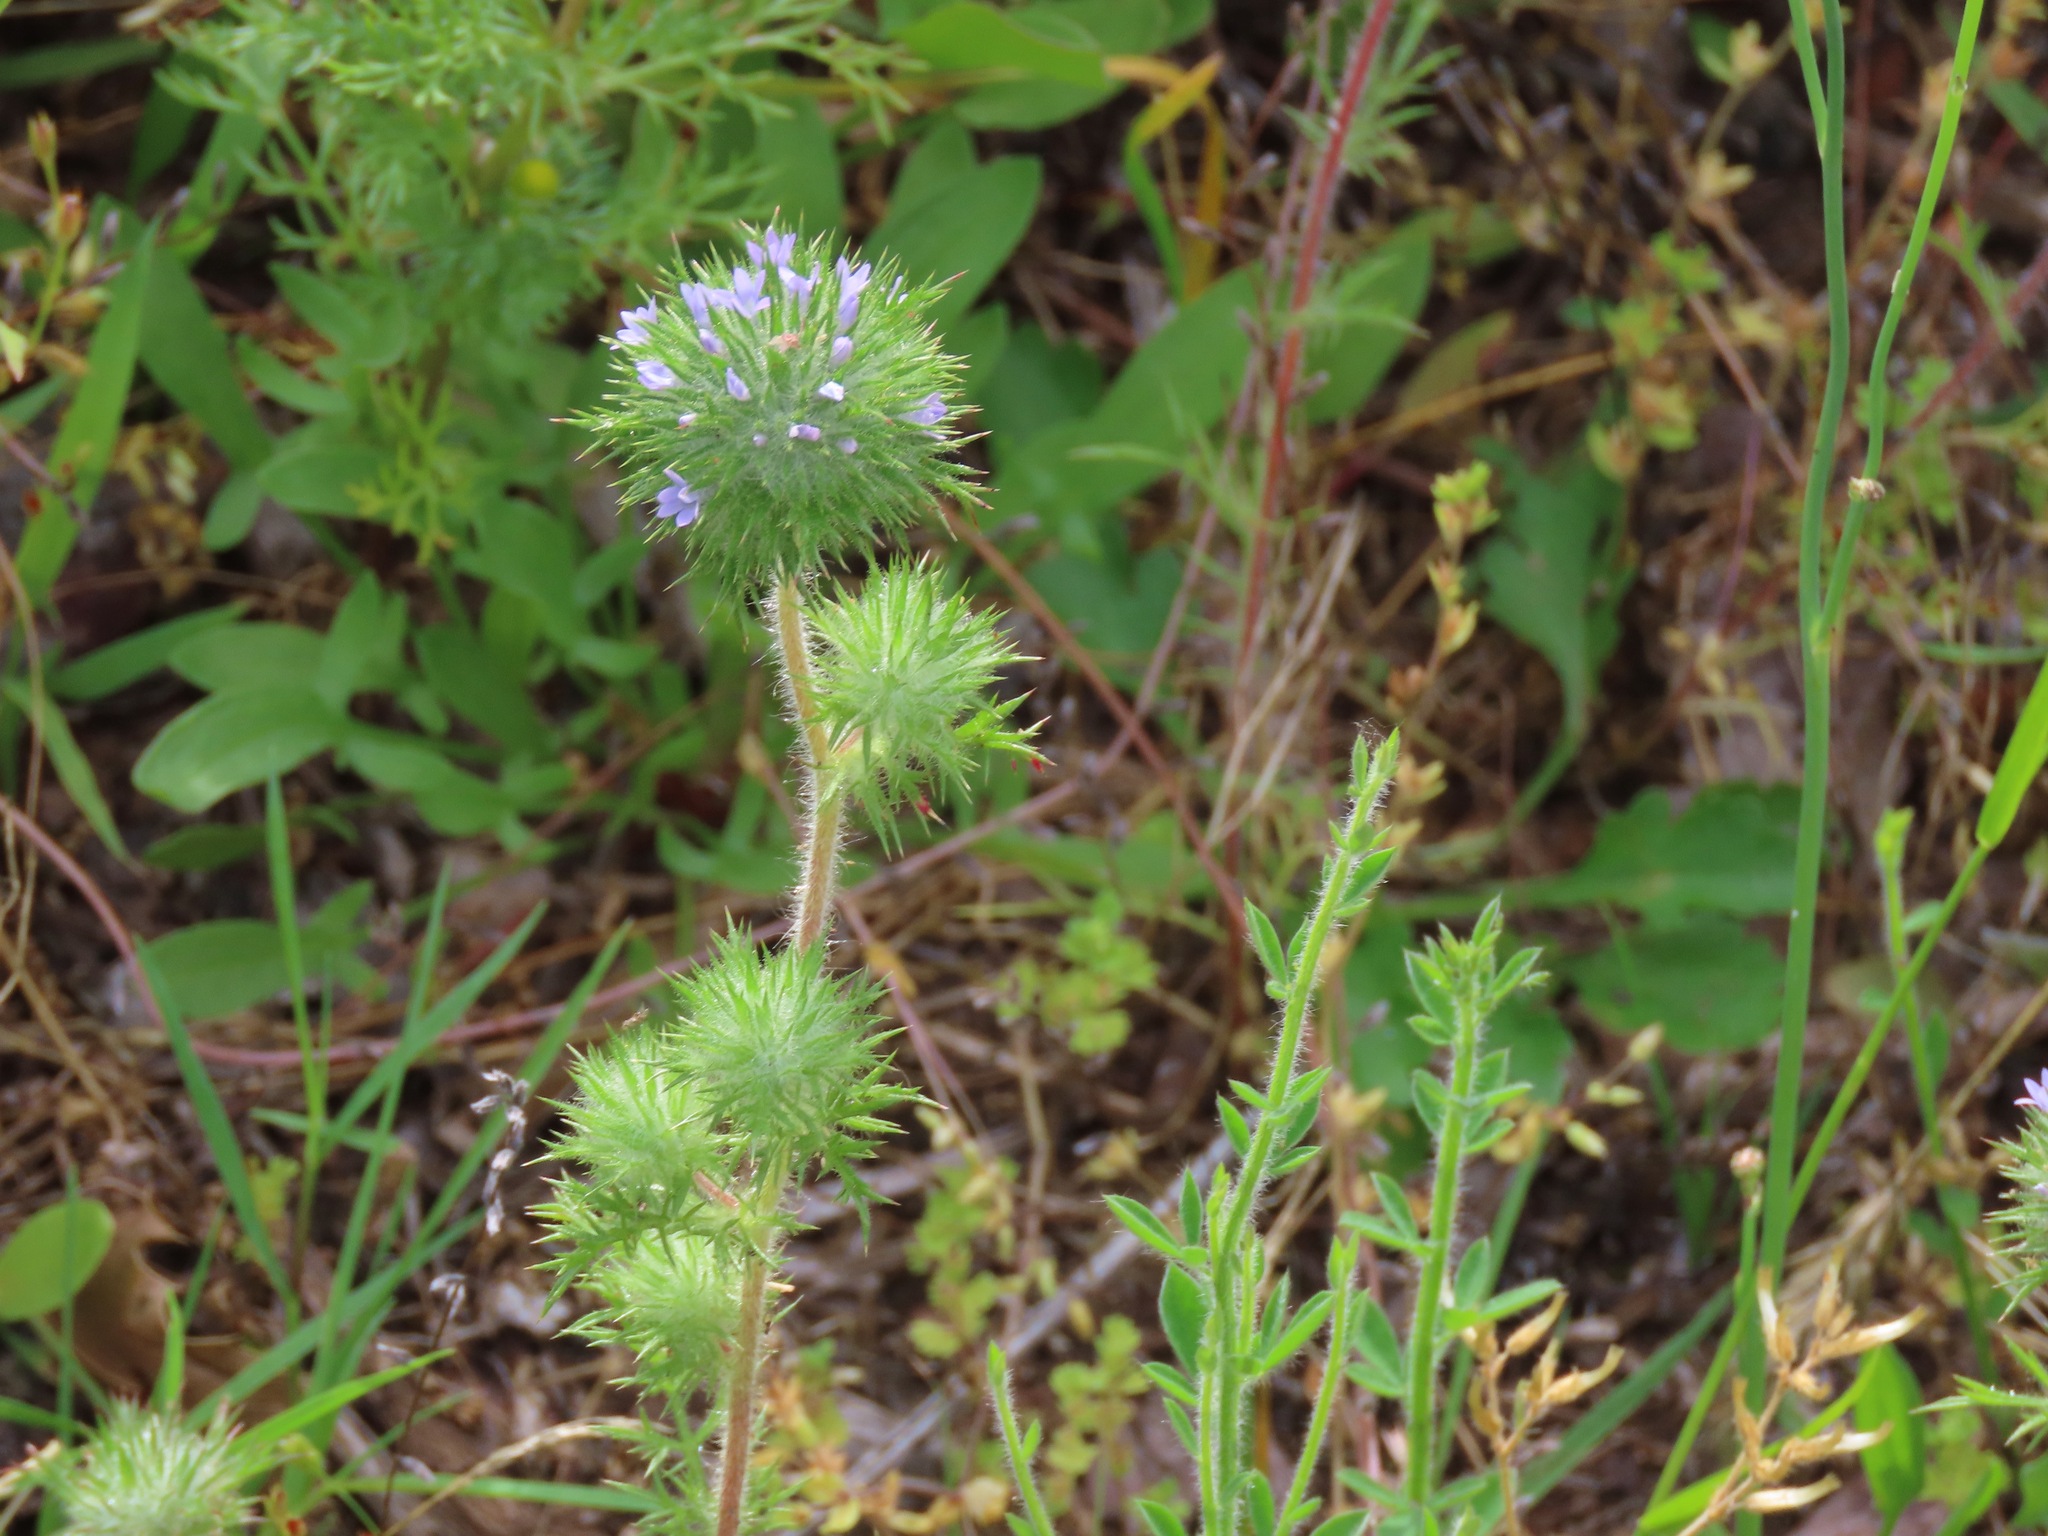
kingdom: Plantae
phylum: Tracheophyta
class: Magnoliopsida
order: Ericales
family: Polemoniaceae
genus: Navarretia
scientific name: Navarretia squarrosa
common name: Skunkweed
